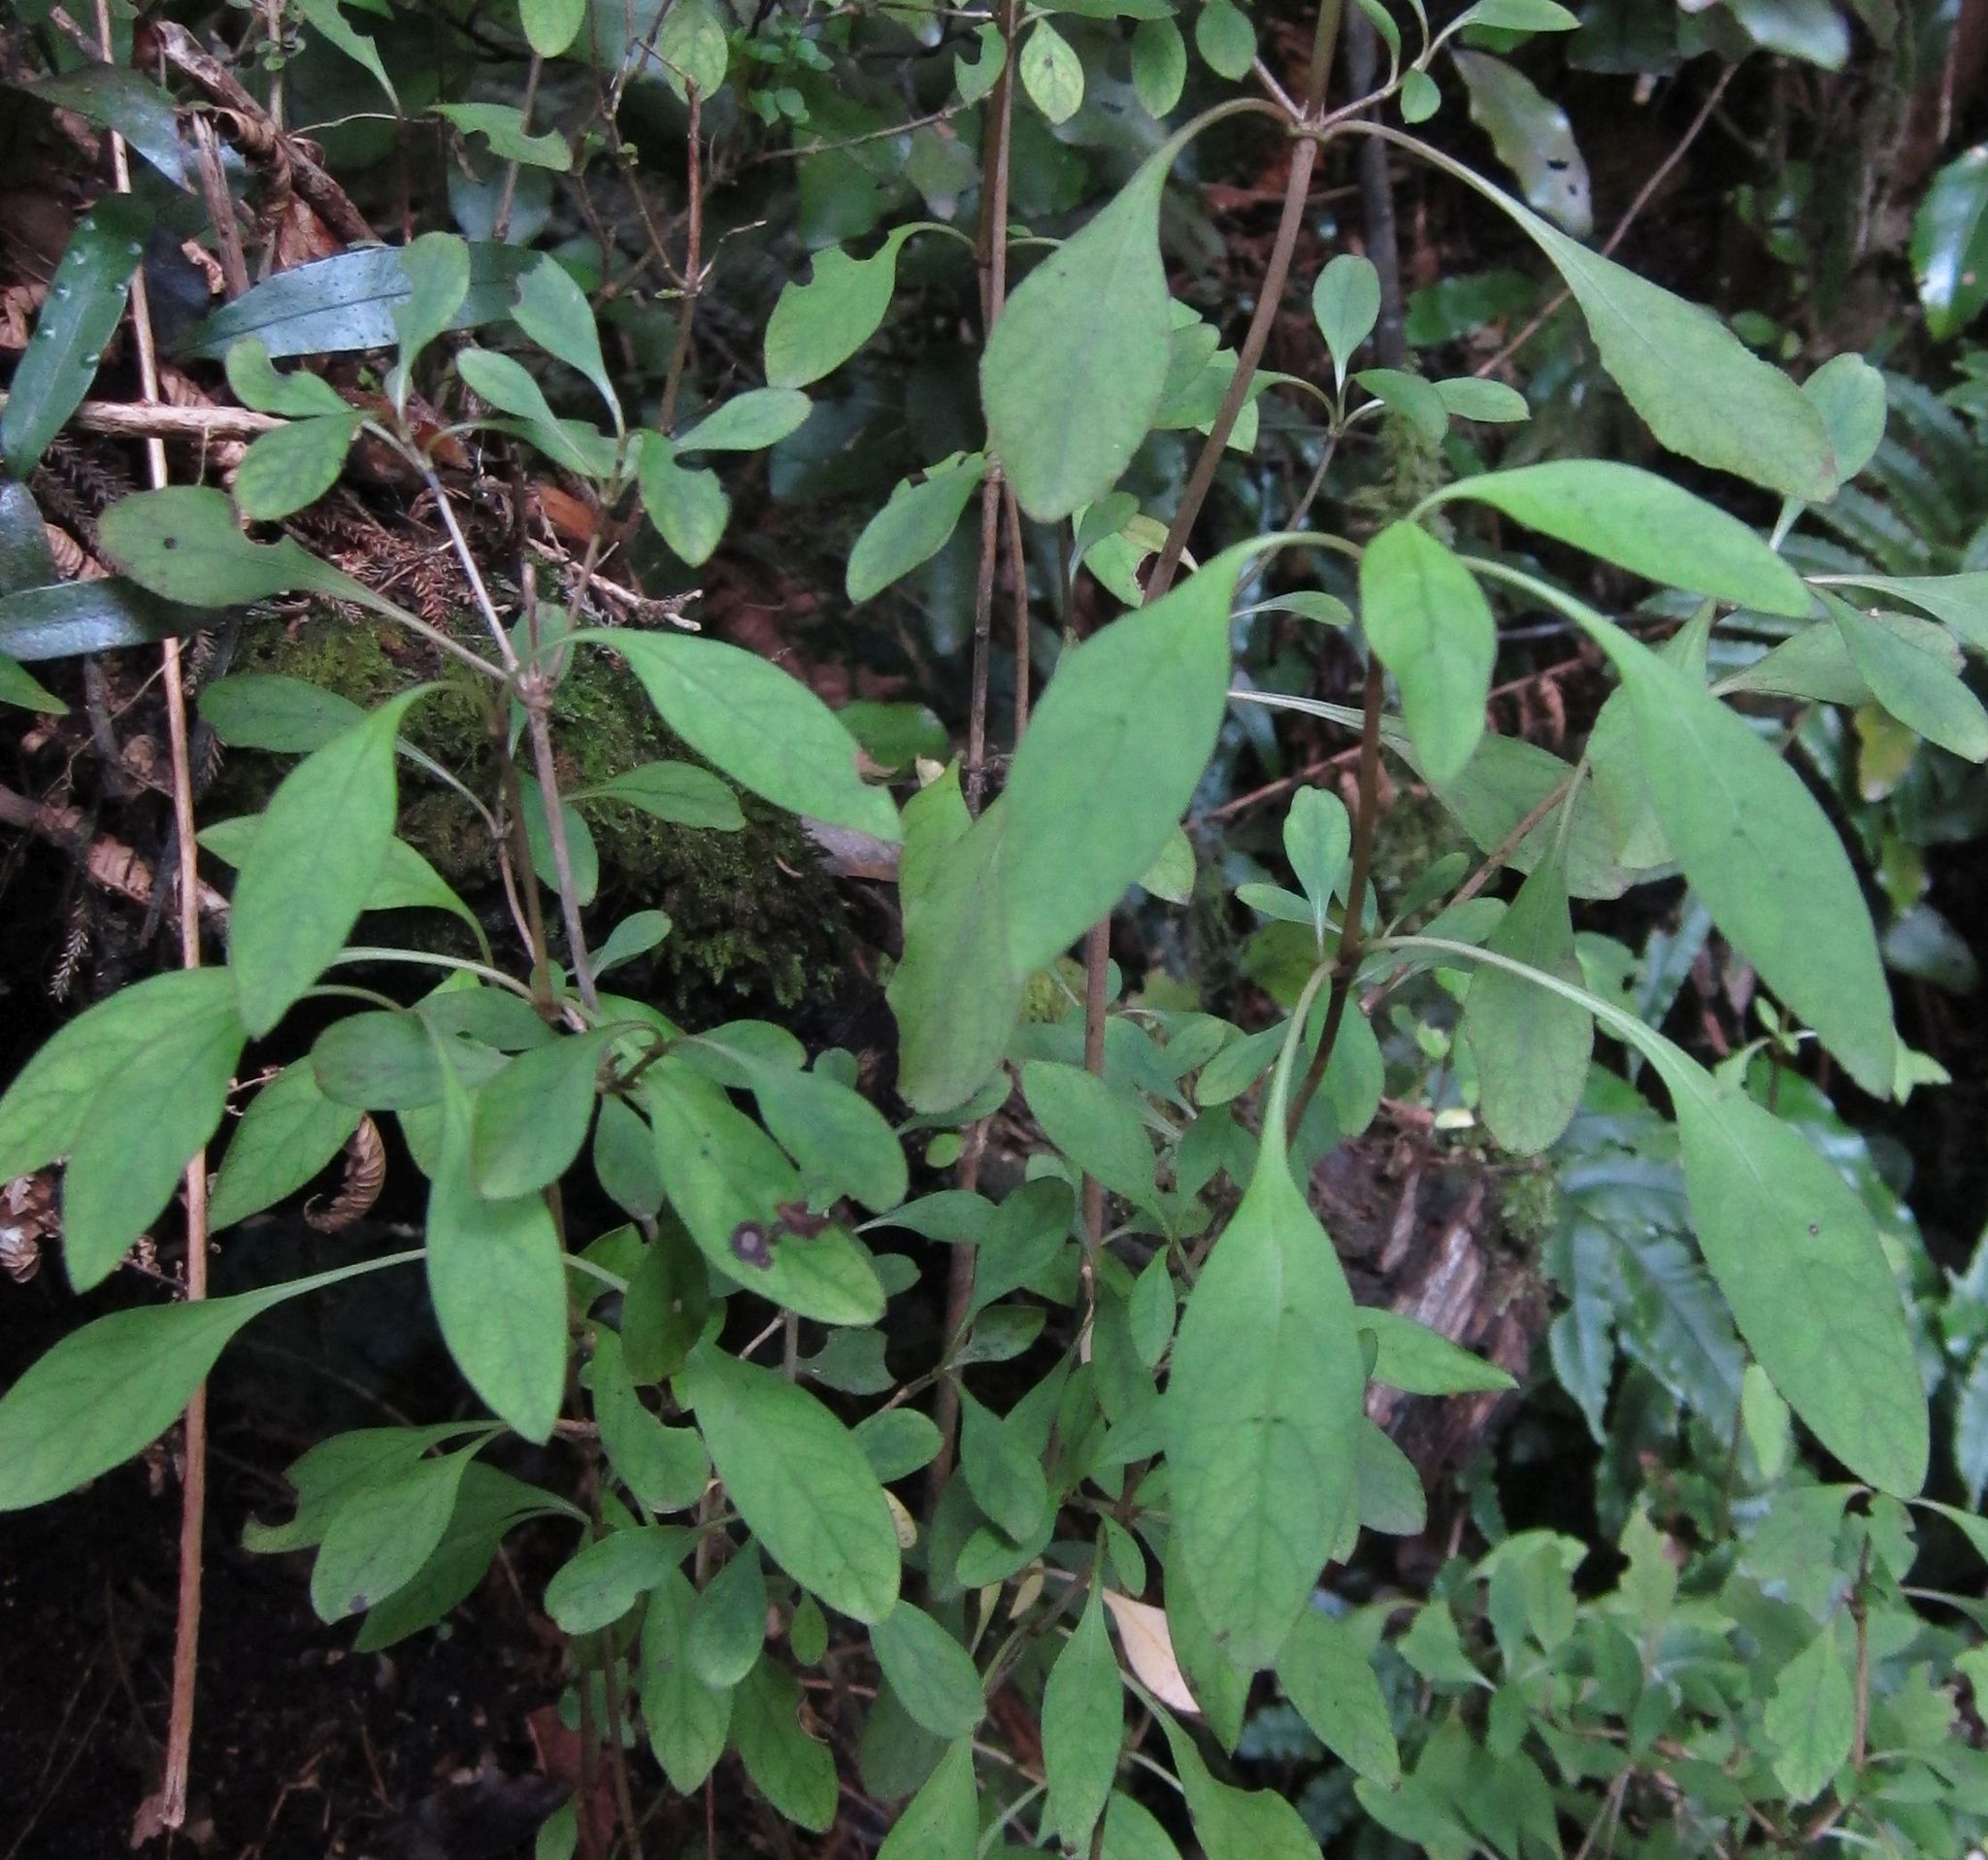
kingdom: Plantae
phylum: Tracheophyta
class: Magnoliopsida
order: Gentianales
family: Rubiaceae
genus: Coprosma
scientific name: Coprosma foetidissima
